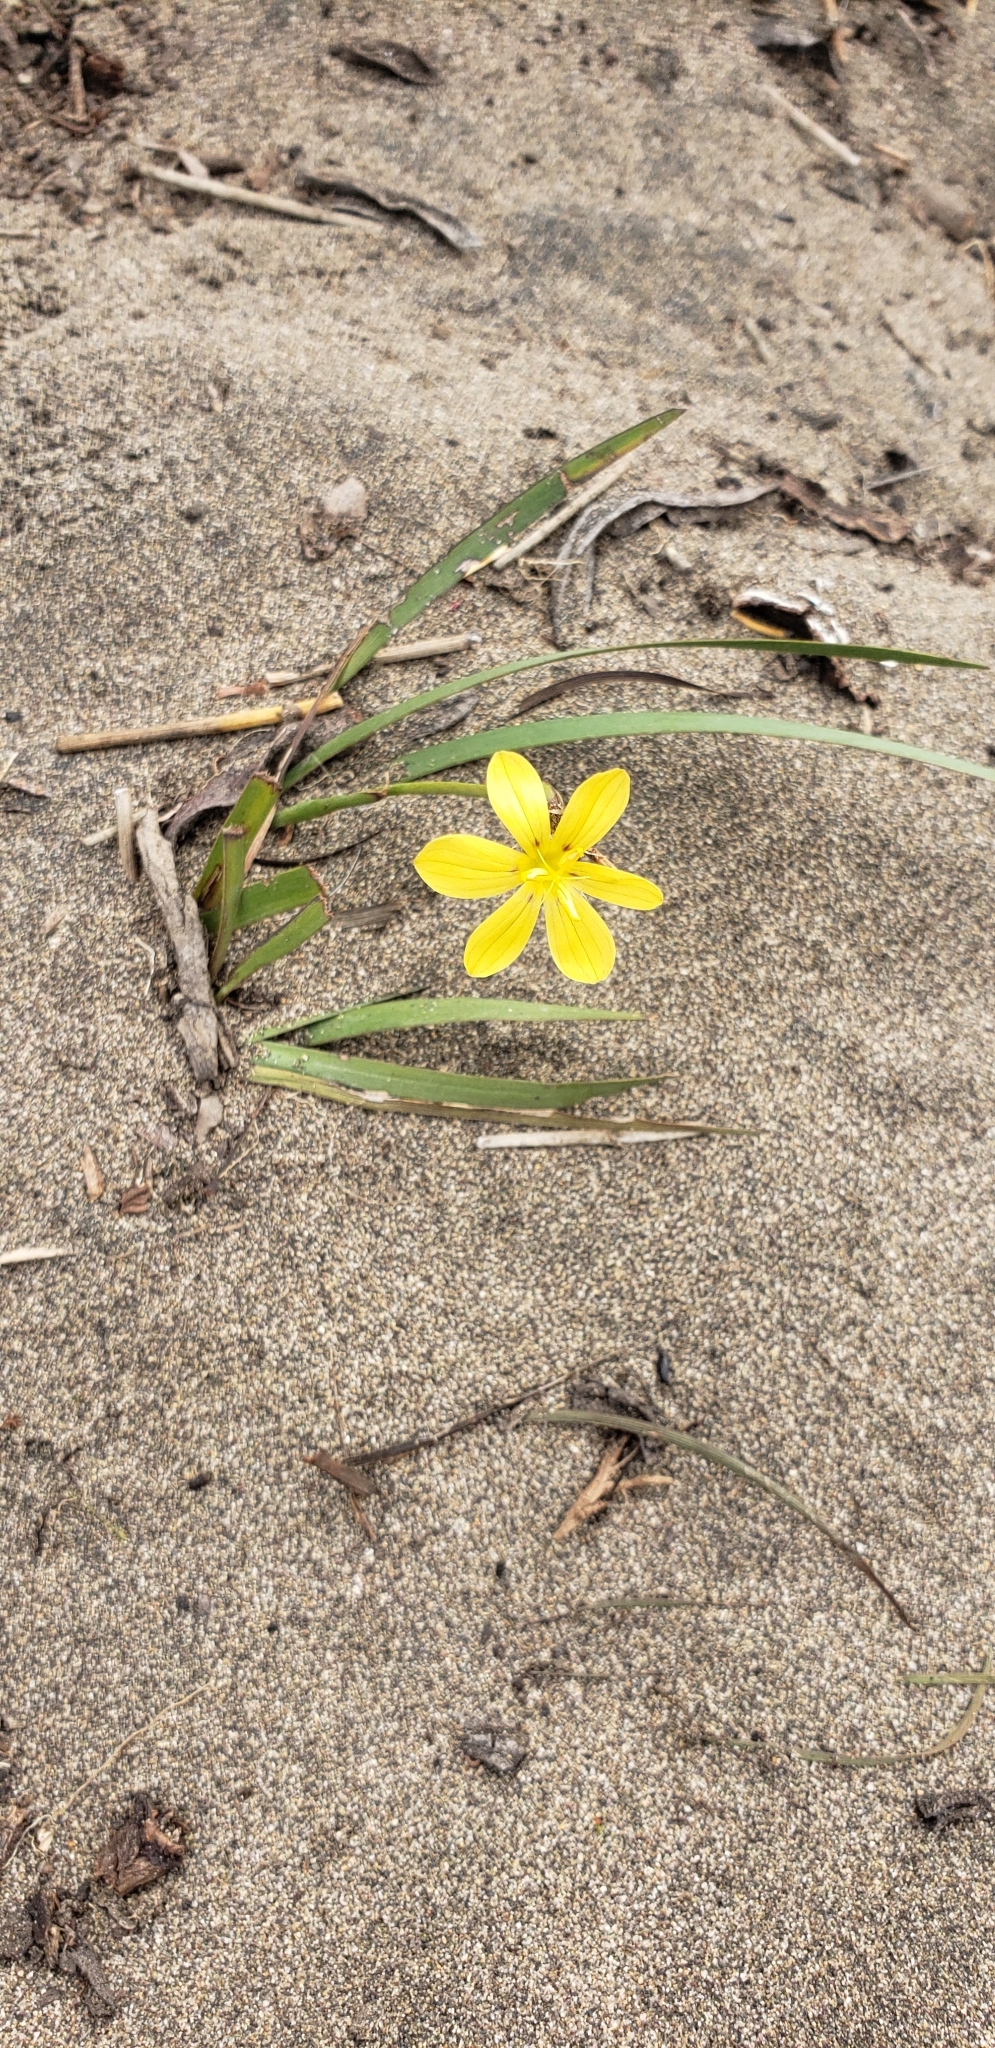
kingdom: Plantae
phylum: Tracheophyta
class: Liliopsida
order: Asparagales
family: Iridaceae
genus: Sisyrinchium
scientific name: Sisyrinchium graminifolium
